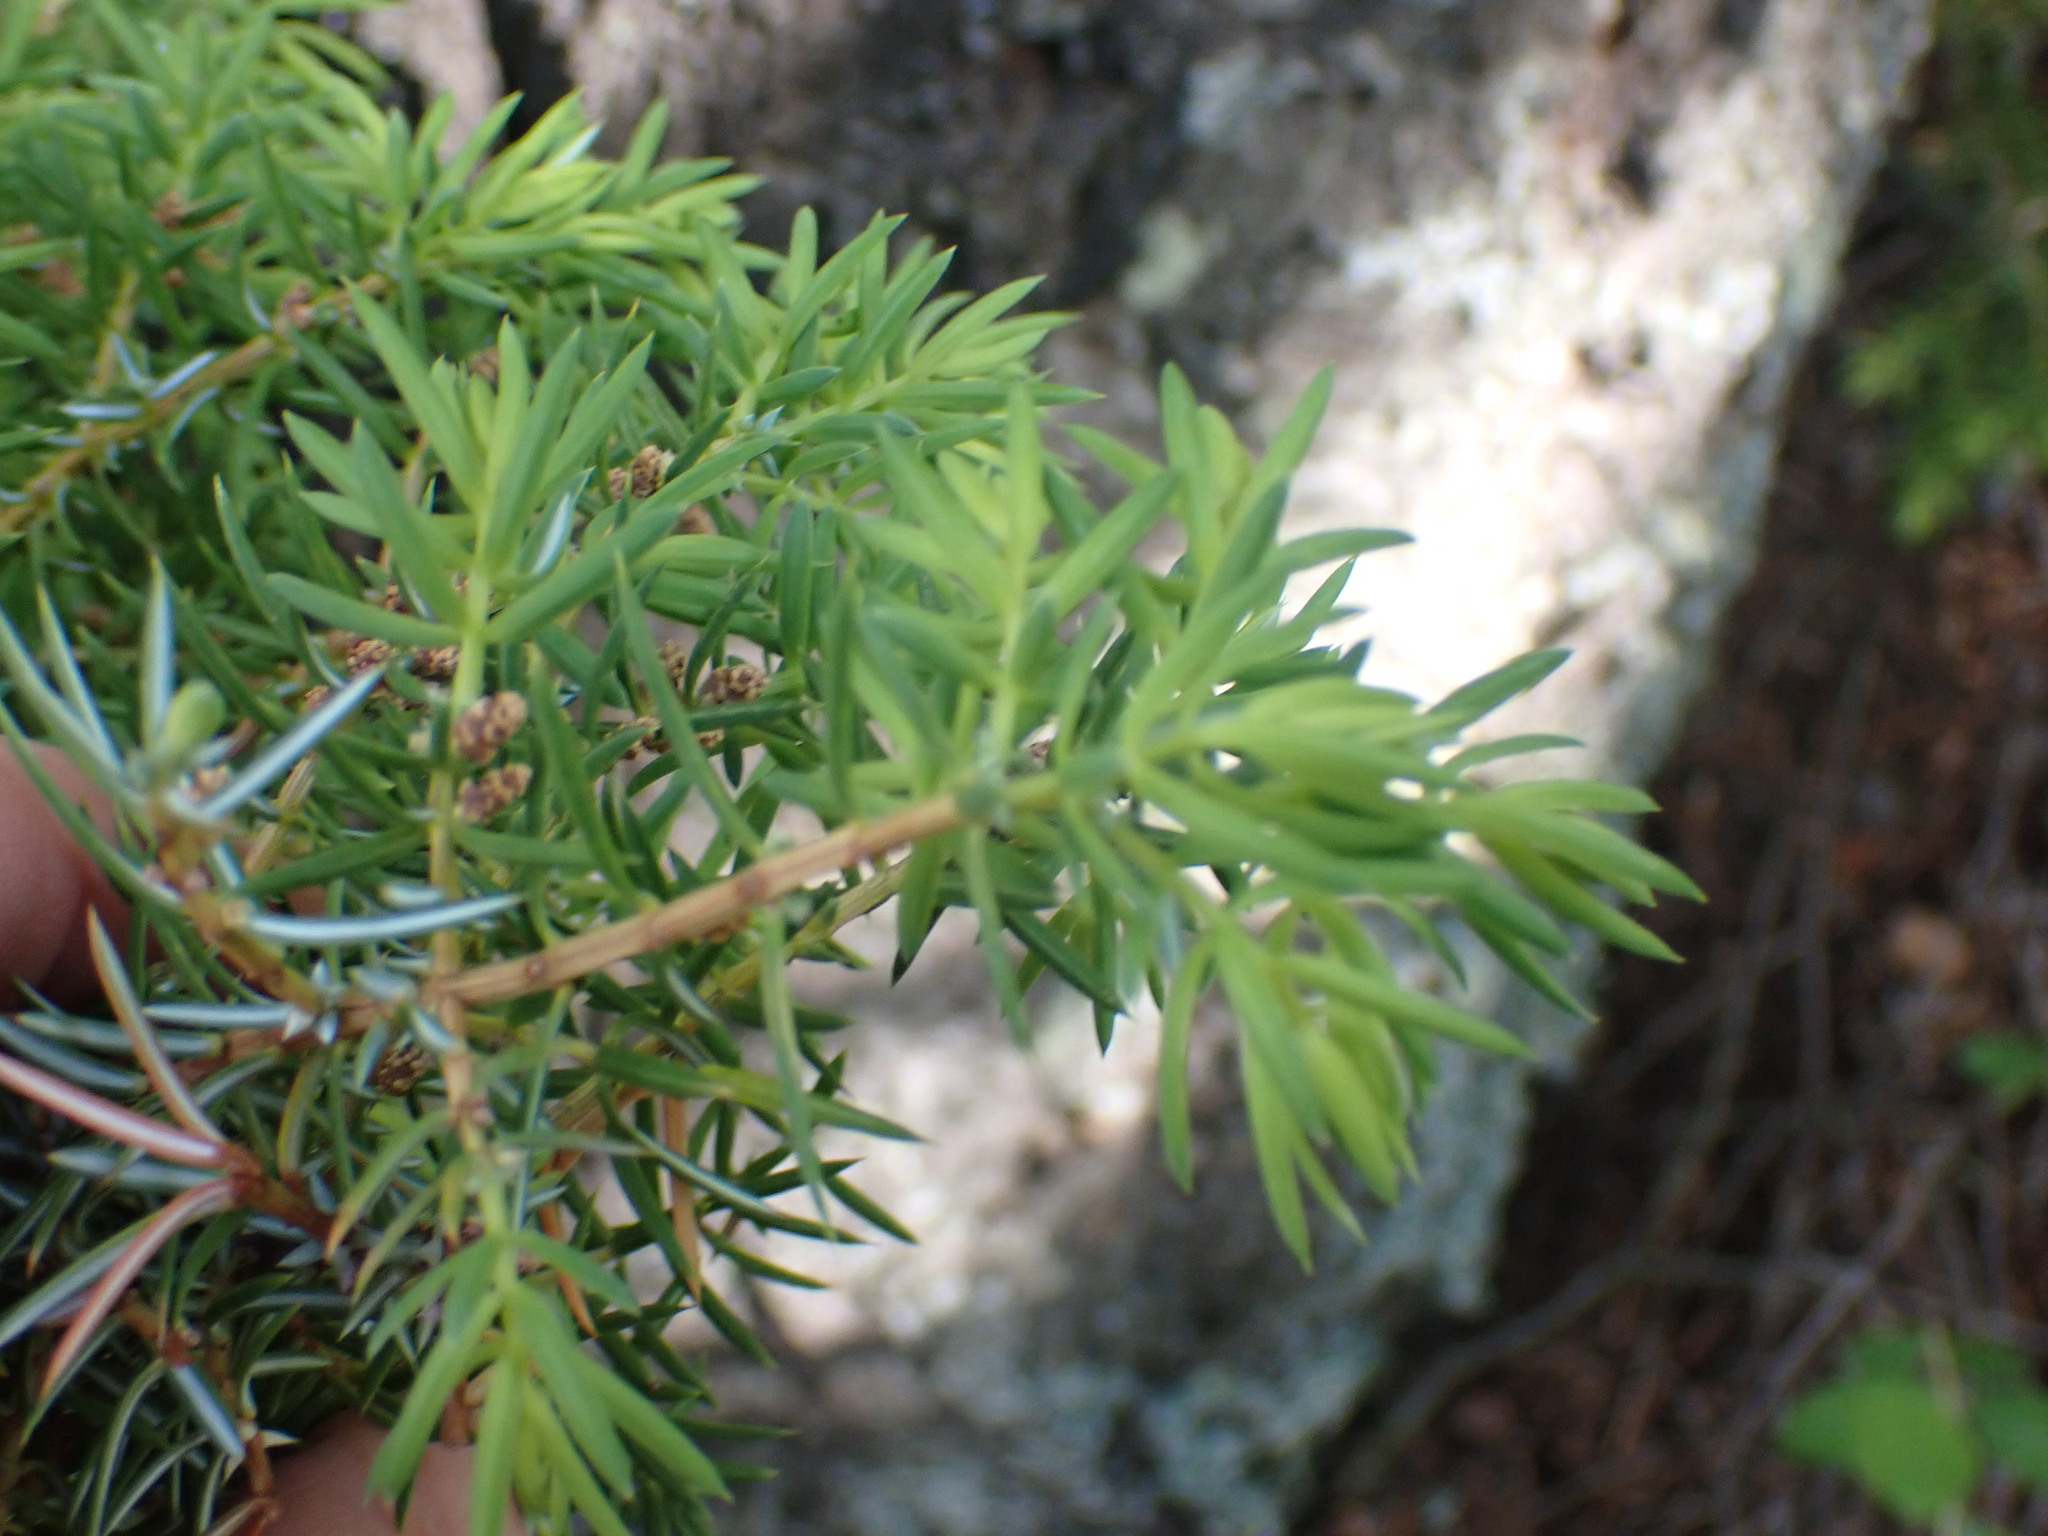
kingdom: Plantae
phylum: Tracheophyta
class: Pinopsida
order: Pinales
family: Cupressaceae
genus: Juniperus
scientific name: Juniperus communis
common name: Common juniper
